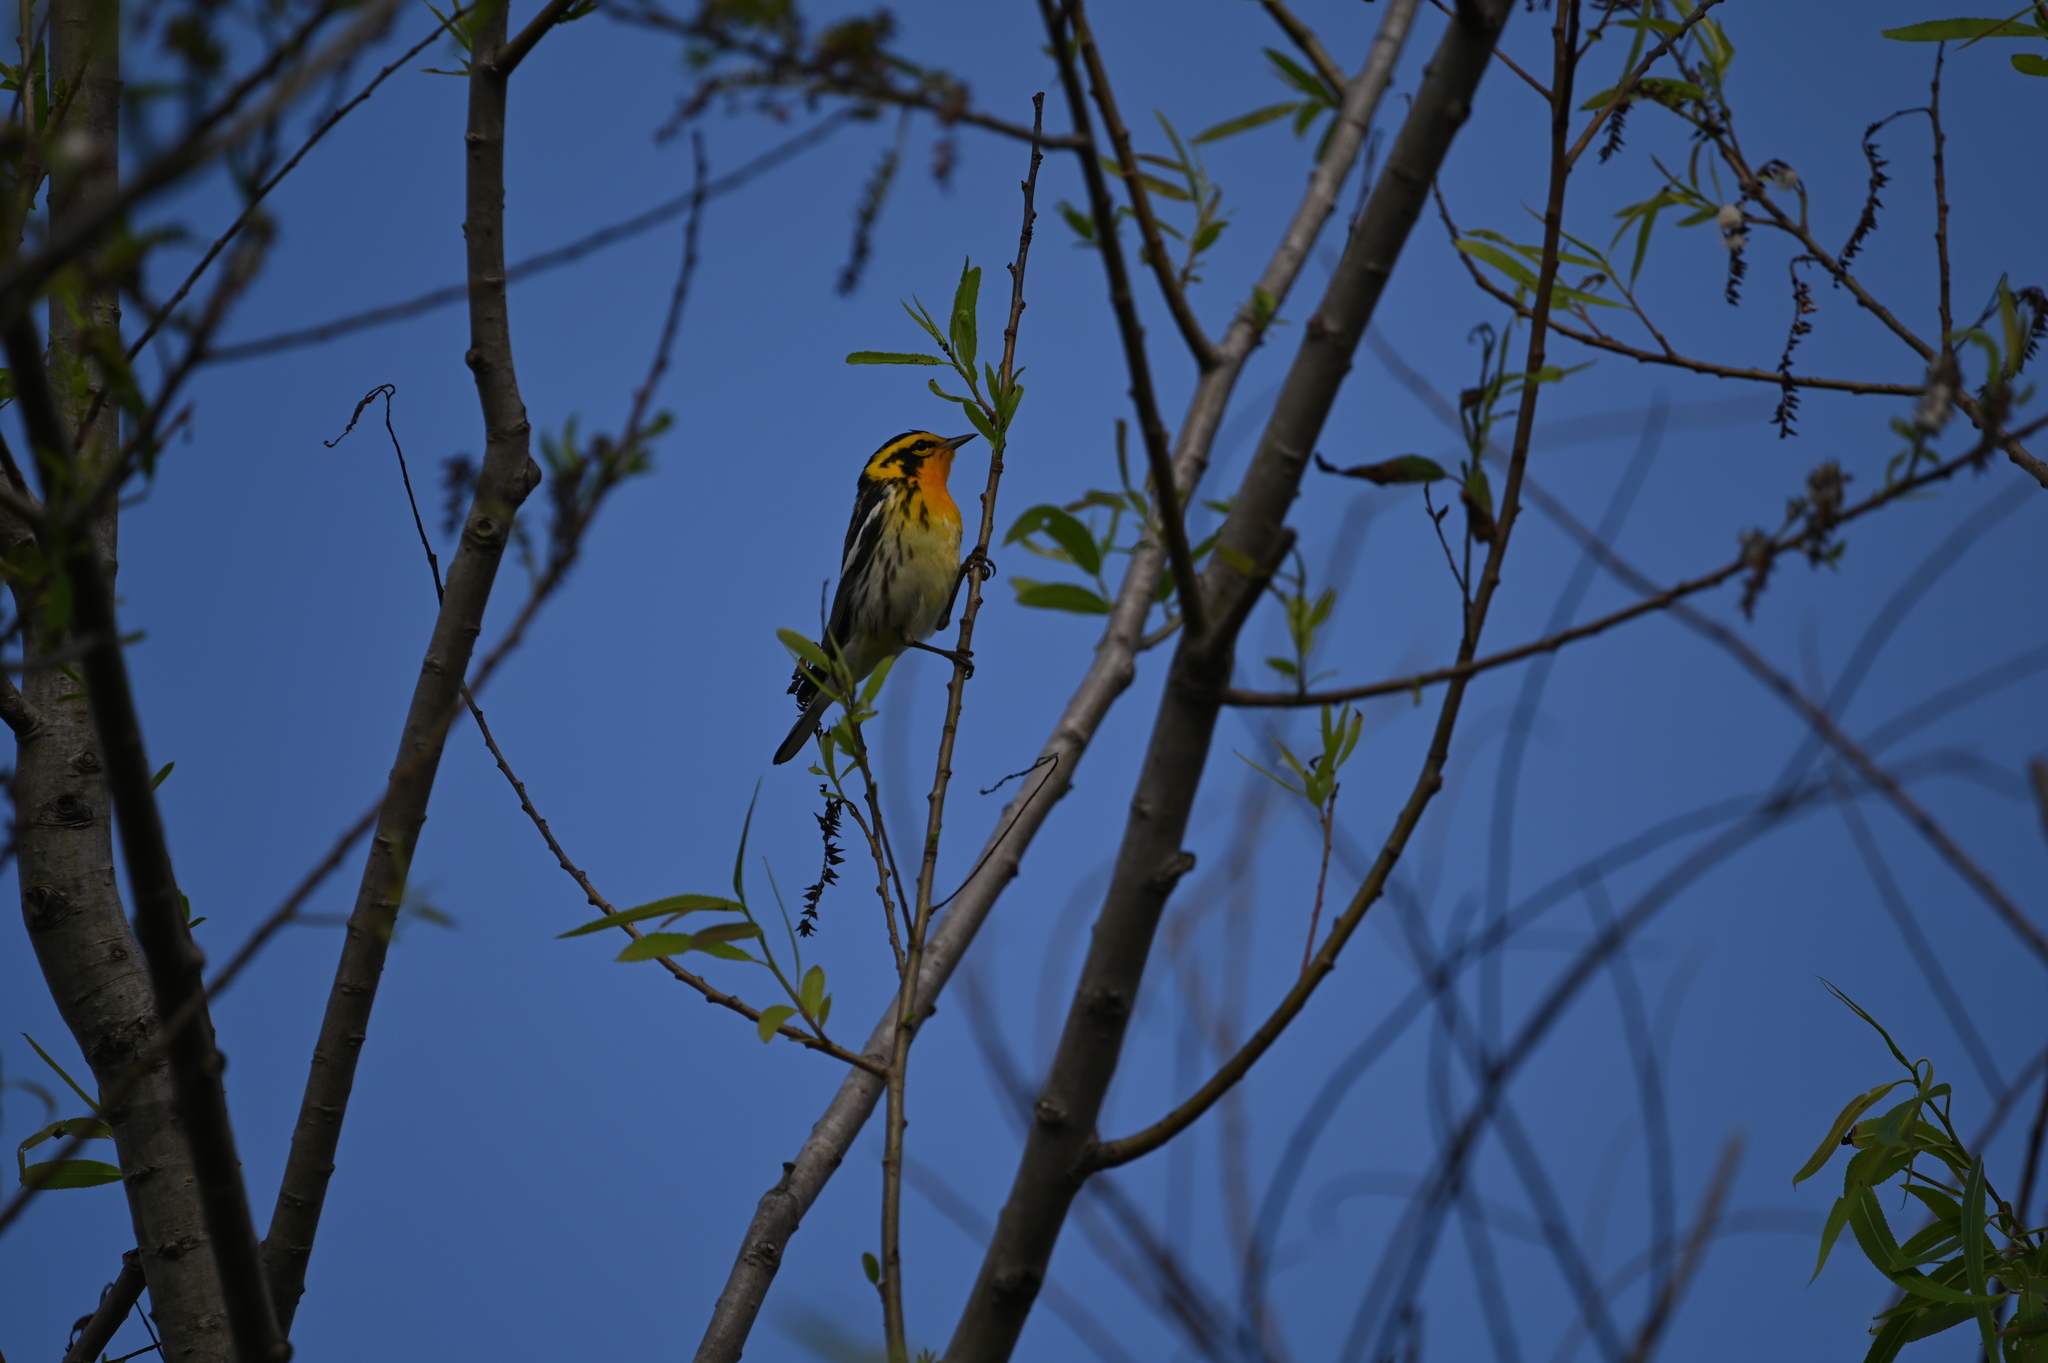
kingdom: Animalia
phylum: Chordata
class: Aves
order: Passeriformes
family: Parulidae
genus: Setophaga
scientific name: Setophaga fusca
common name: Blackburnian warbler
